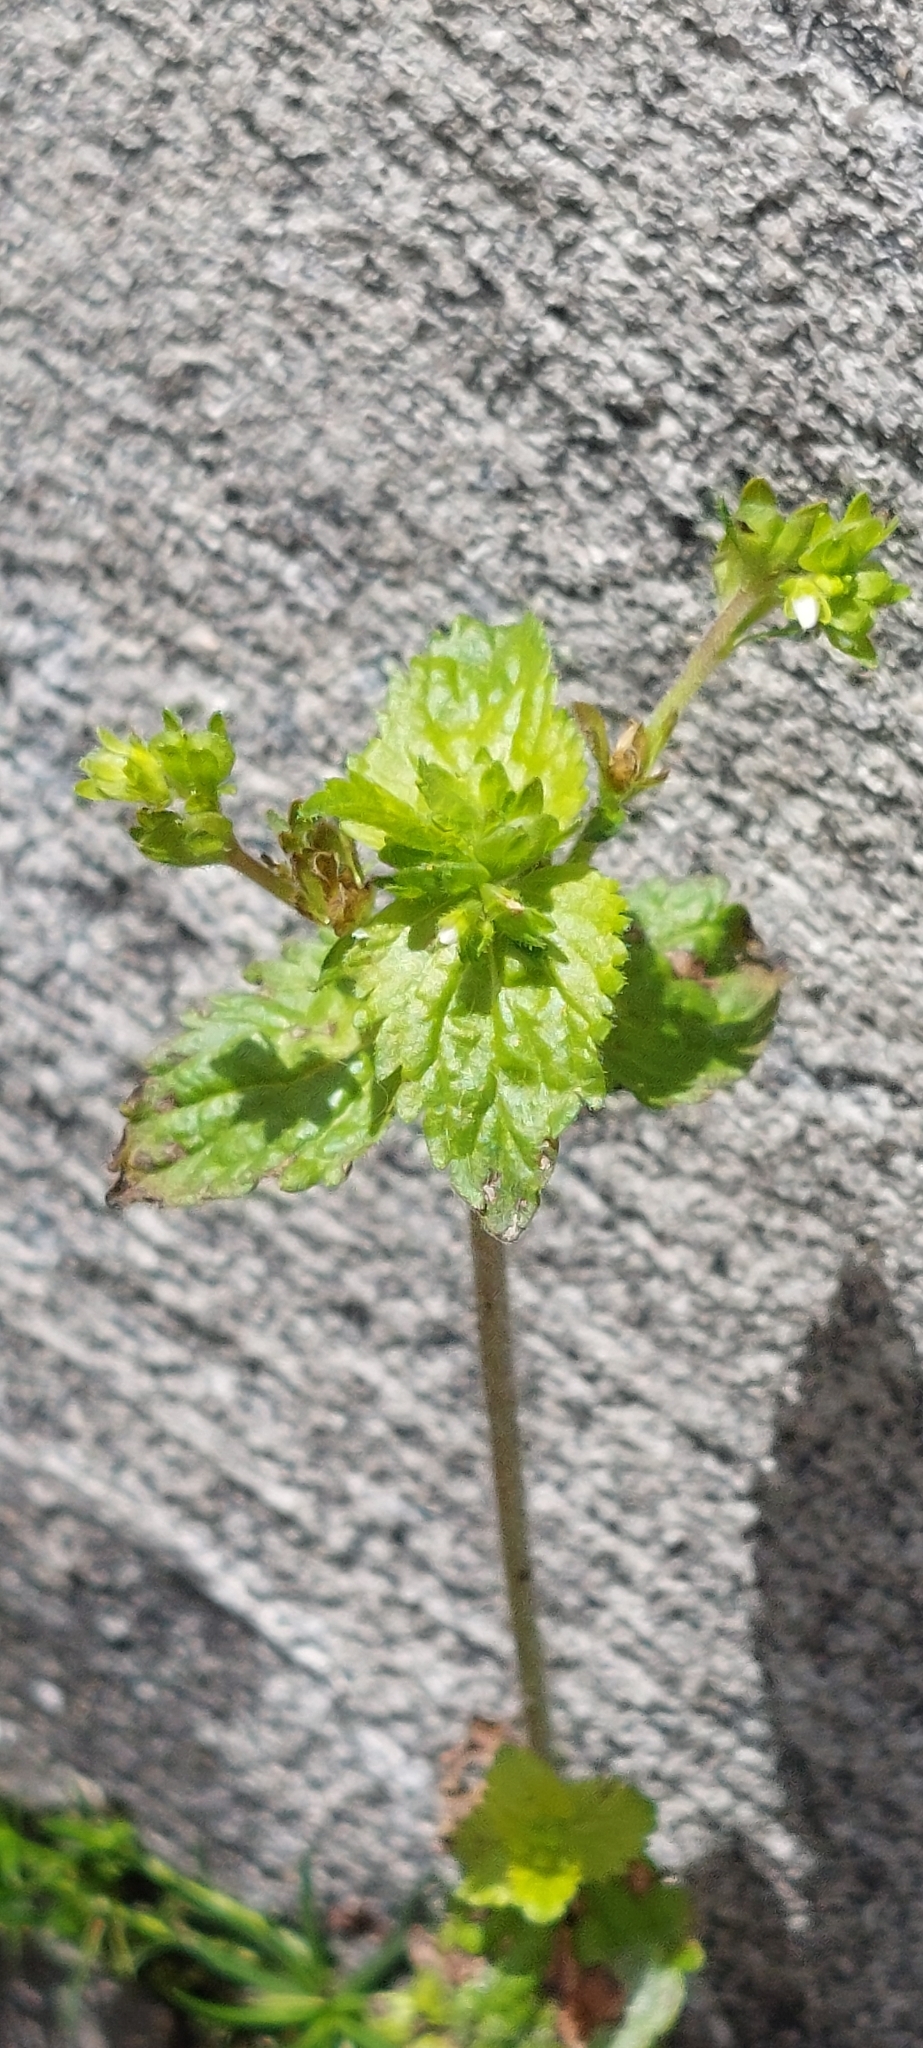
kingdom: Plantae
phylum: Tracheophyta
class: Magnoliopsida
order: Lamiales
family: Plantaginaceae
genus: Veronica
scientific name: Veronica javanica
